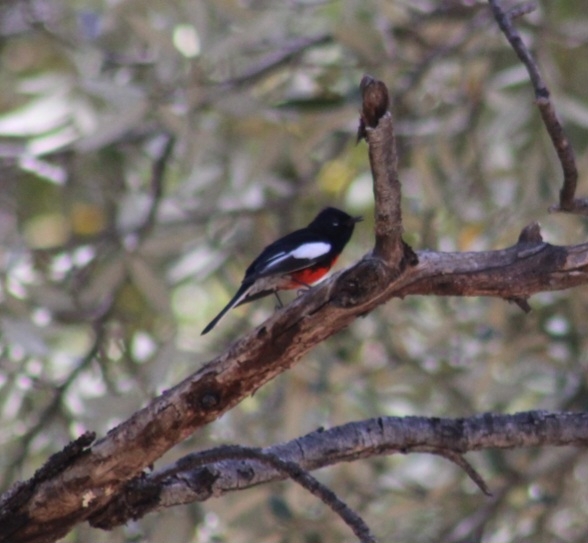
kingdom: Animalia
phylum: Chordata
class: Aves
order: Passeriformes
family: Parulidae
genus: Myioborus
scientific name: Myioborus pictus
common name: Painted whitestart
